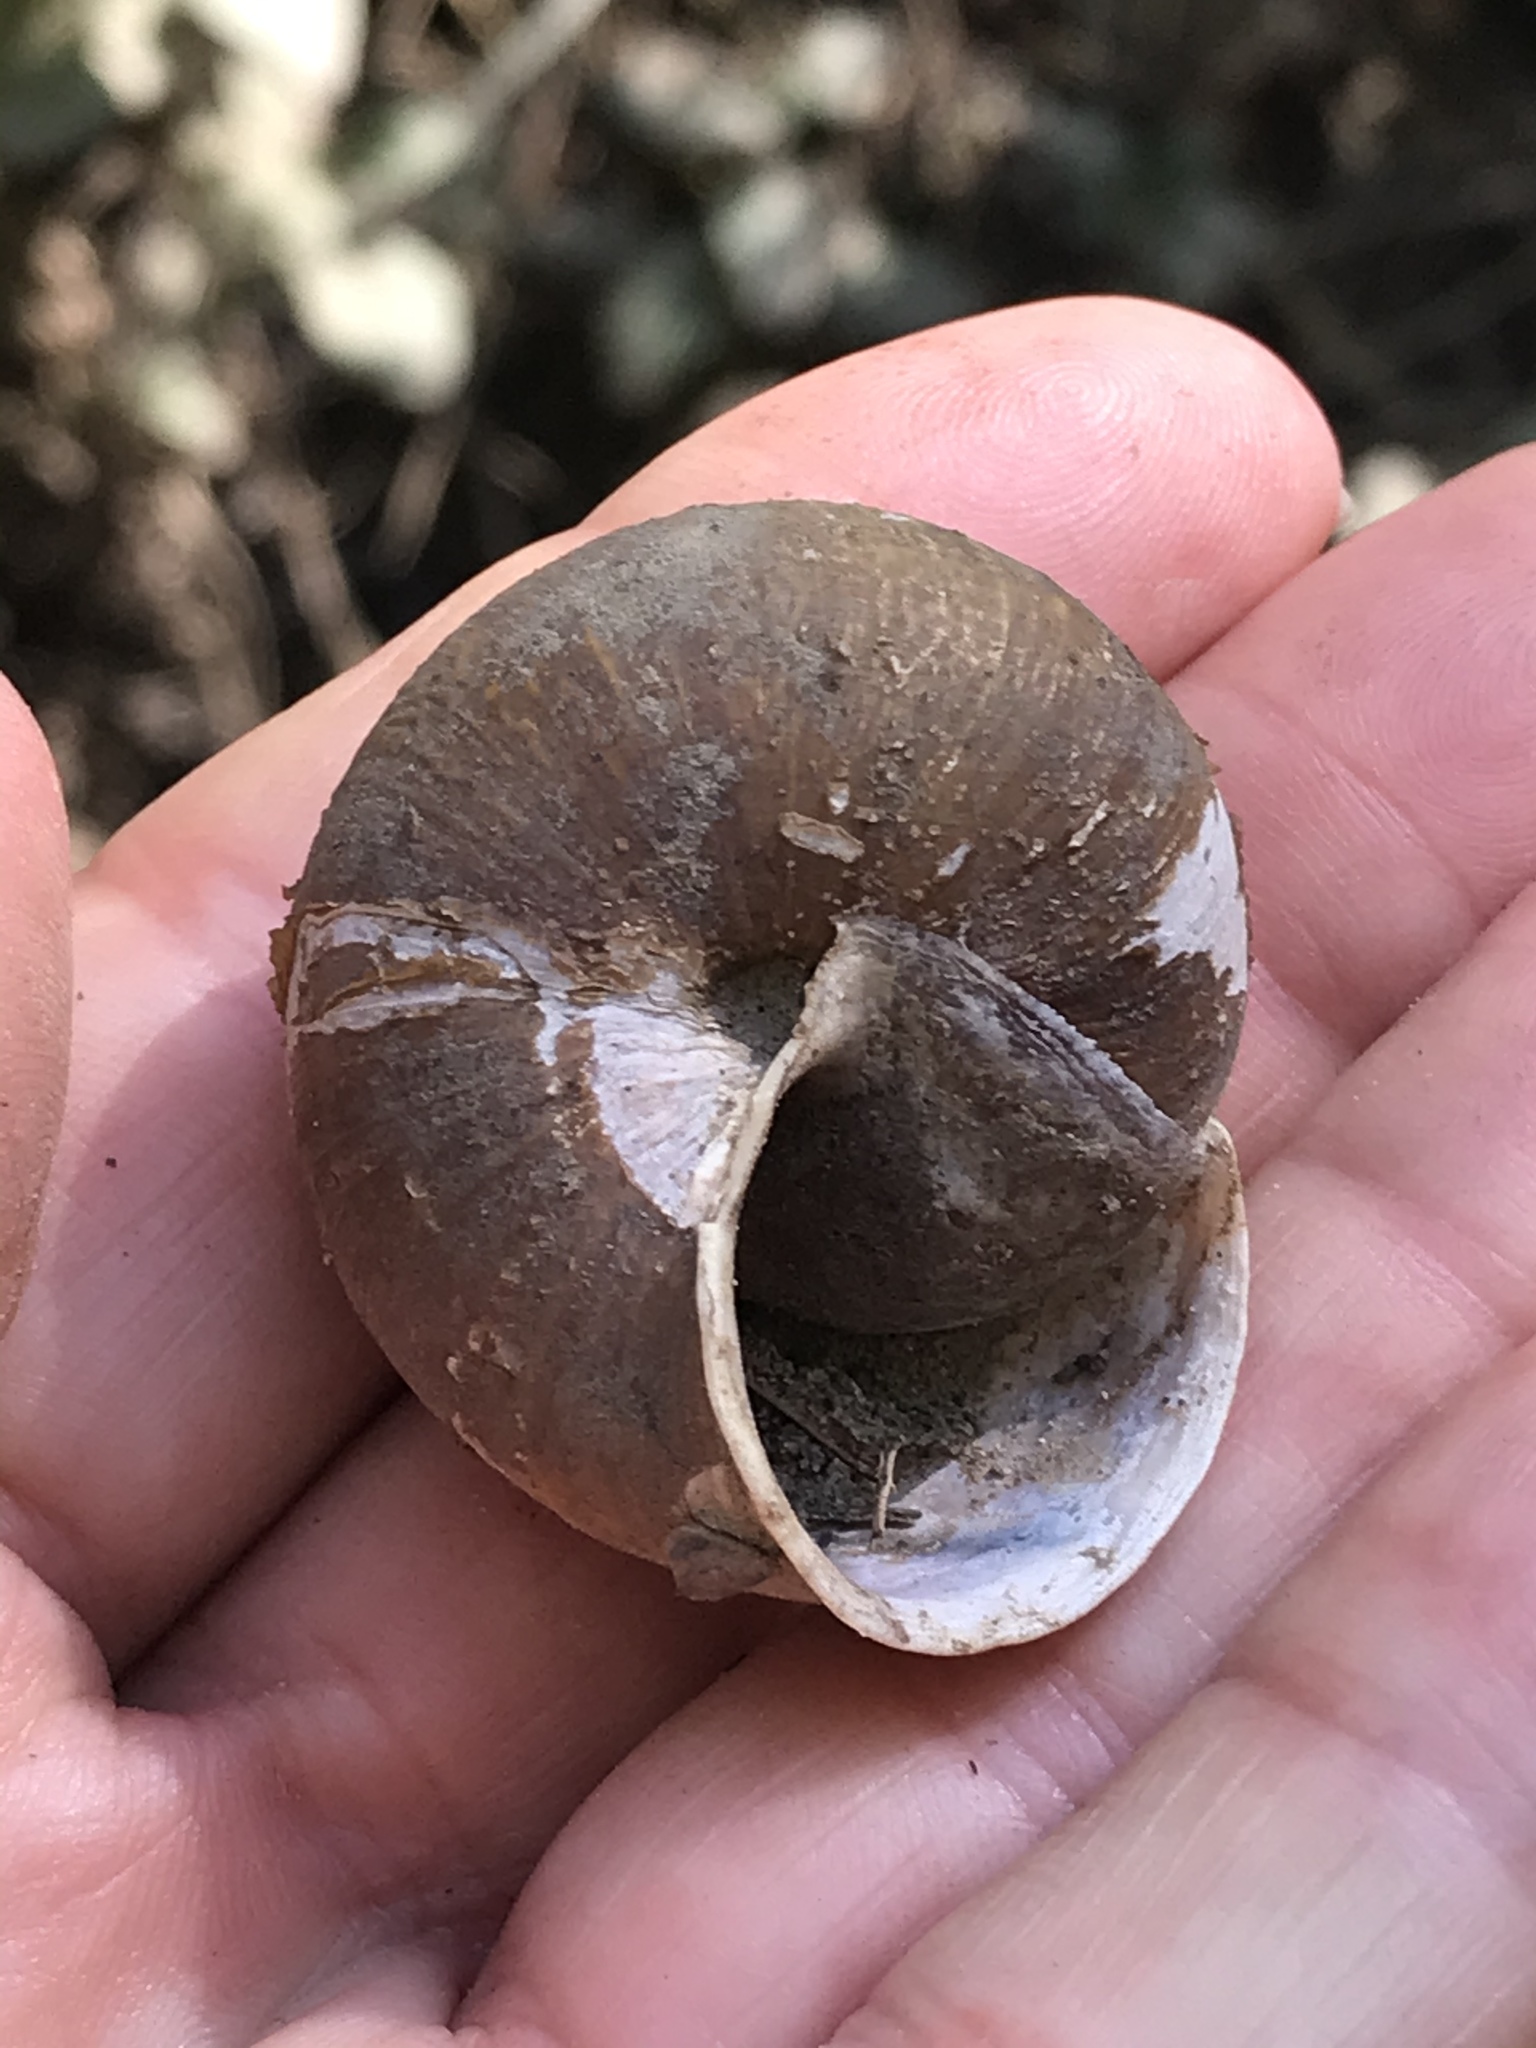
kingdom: Animalia
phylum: Mollusca
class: Gastropoda
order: Stylommatophora
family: Xanthonychidae
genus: Helminthoglypta
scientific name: Helminthoglypta arrosa
